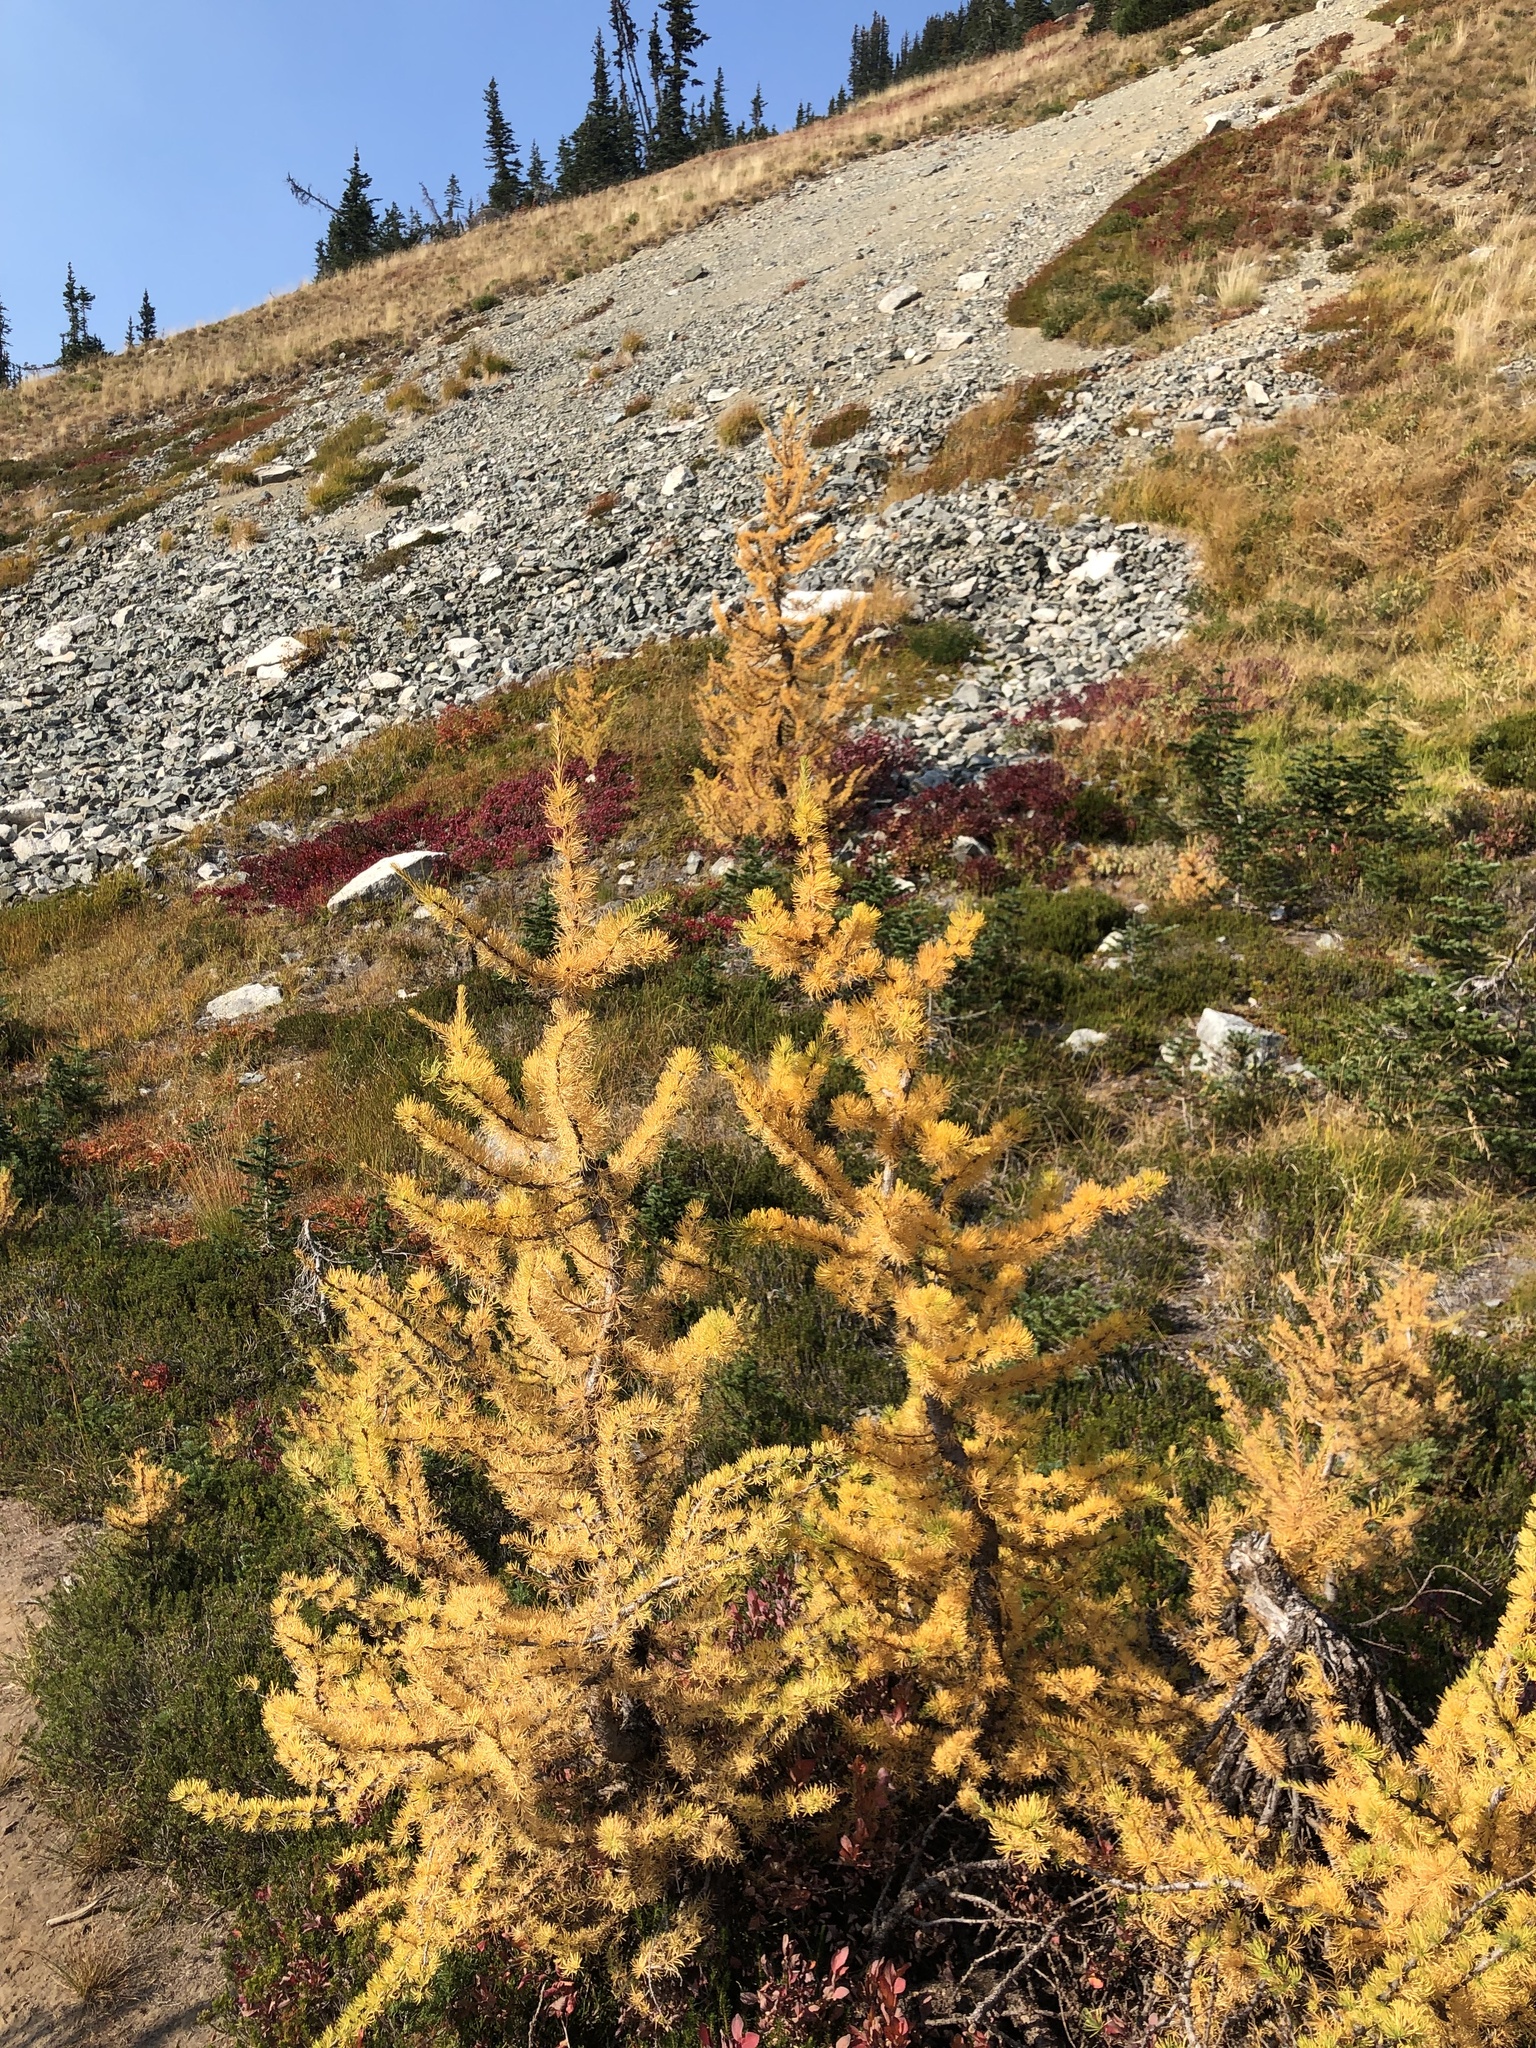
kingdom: Plantae
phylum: Tracheophyta
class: Pinopsida
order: Pinales
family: Pinaceae
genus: Larix
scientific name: Larix lyallii
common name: Alpine larch
